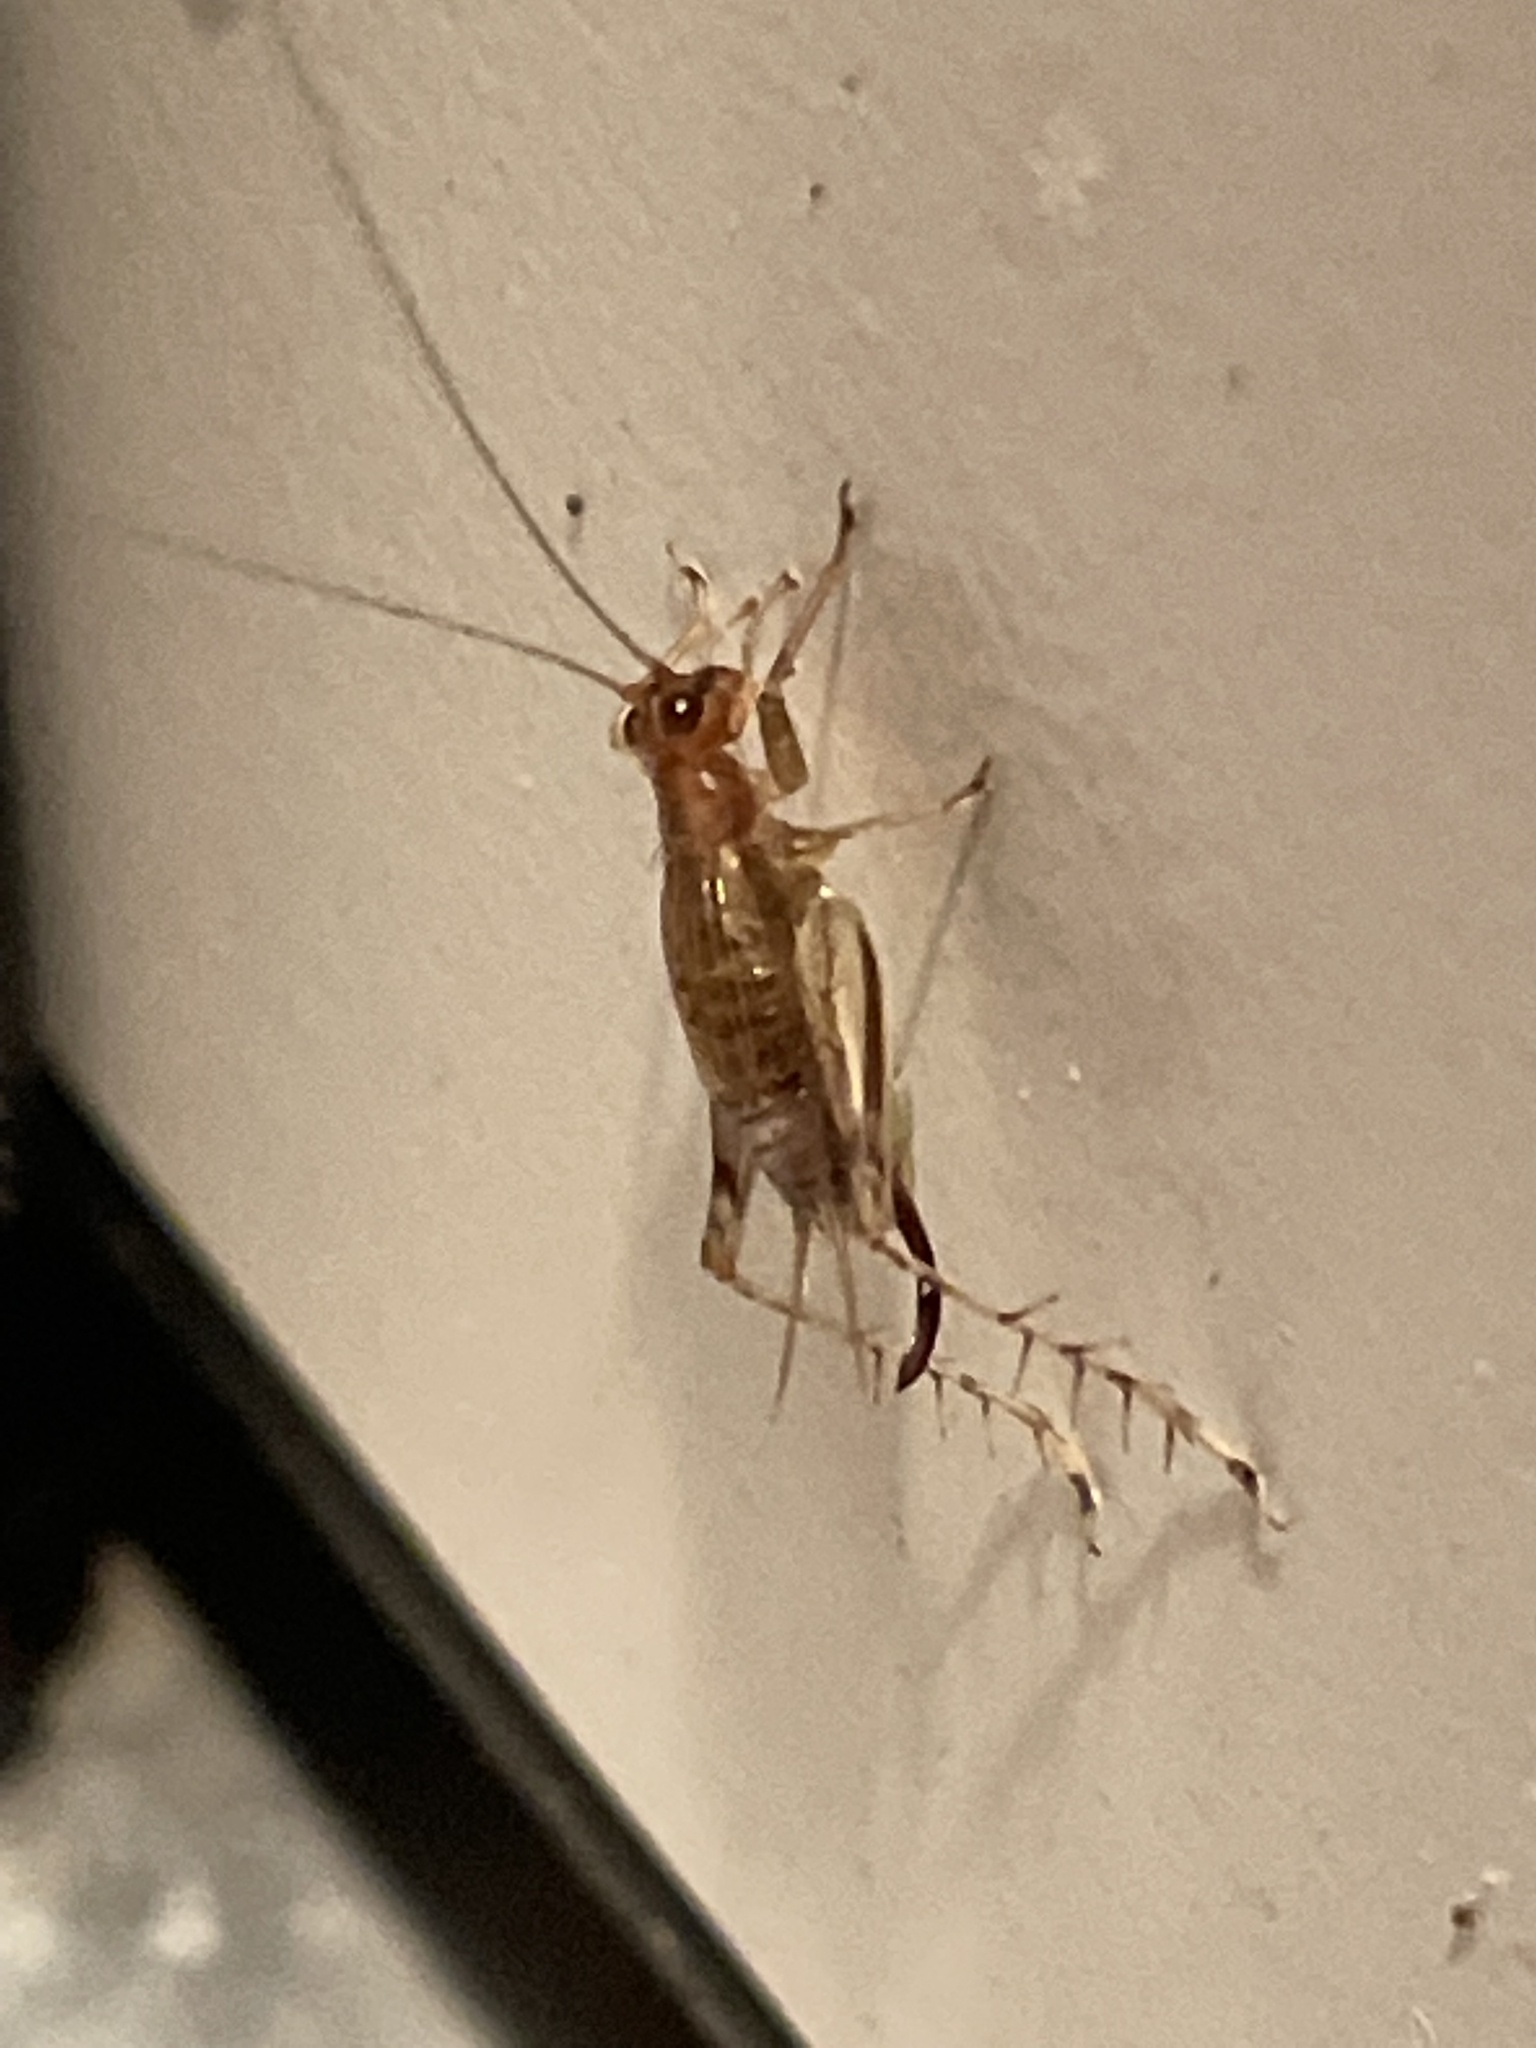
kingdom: Animalia
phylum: Arthropoda
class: Insecta
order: Orthoptera
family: Trigonidiidae
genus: Anaxipha
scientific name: Anaxipha exigua
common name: Say's bush cricket
